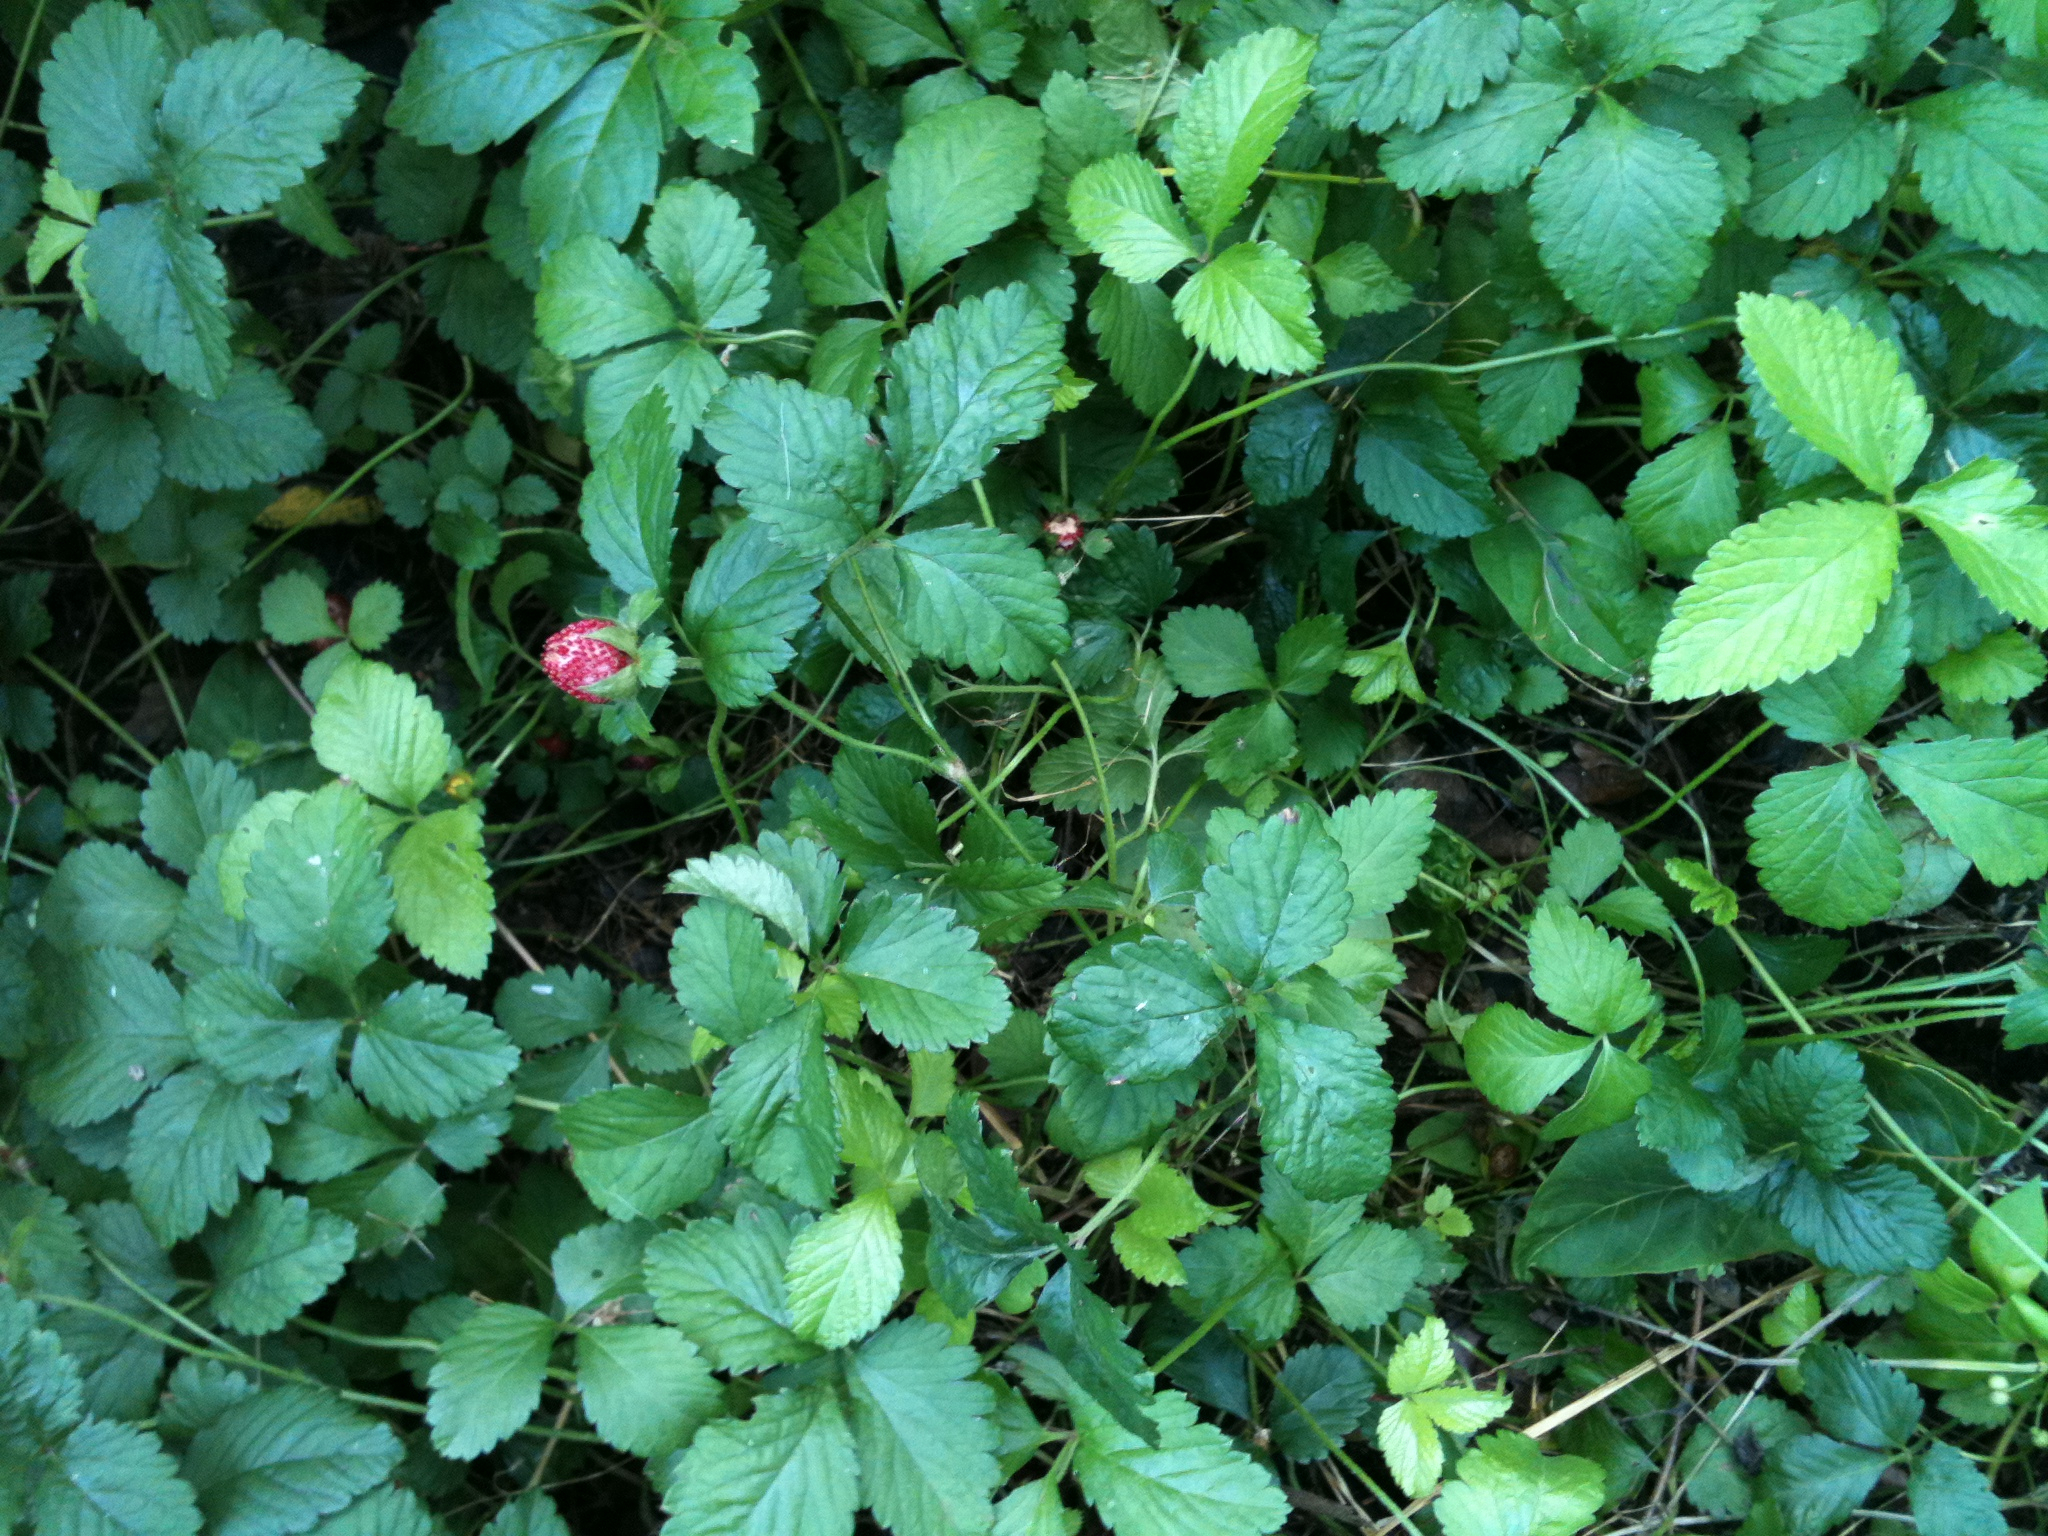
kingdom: Plantae
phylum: Tracheophyta
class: Magnoliopsida
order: Rosales
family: Rosaceae
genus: Potentilla
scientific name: Potentilla indica
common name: Yellow-flowered strawberry
